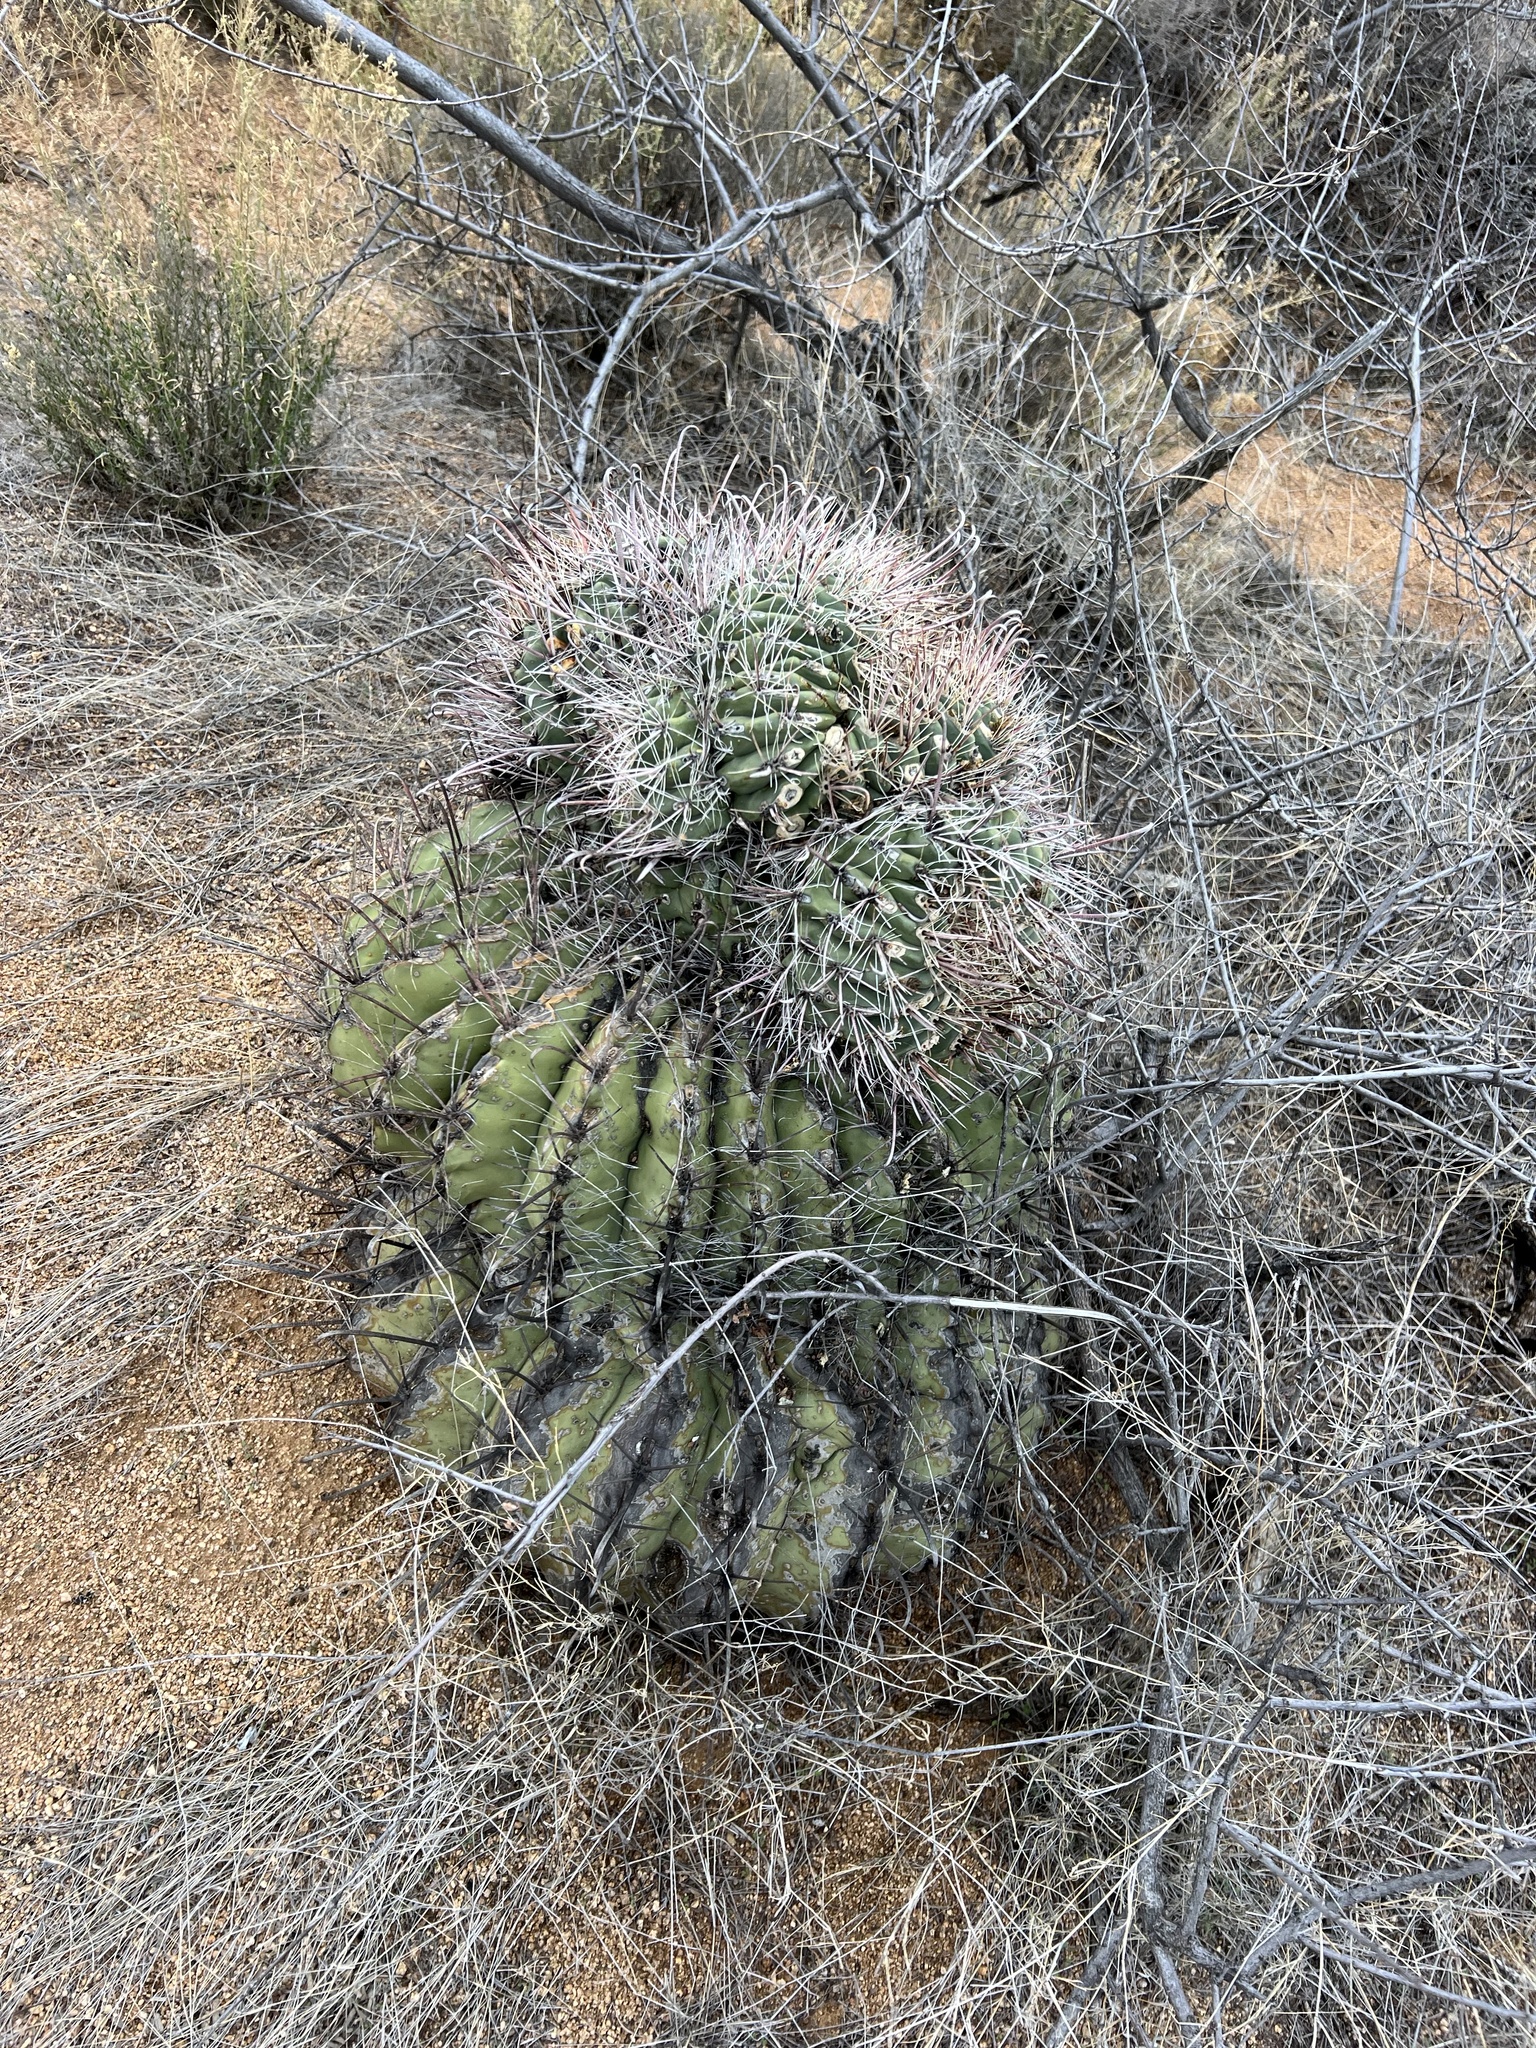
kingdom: Plantae
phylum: Tracheophyta
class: Magnoliopsida
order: Caryophyllales
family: Cactaceae
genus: Ferocactus
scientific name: Ferocactus wislizeni
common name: Candy barrel cactus
